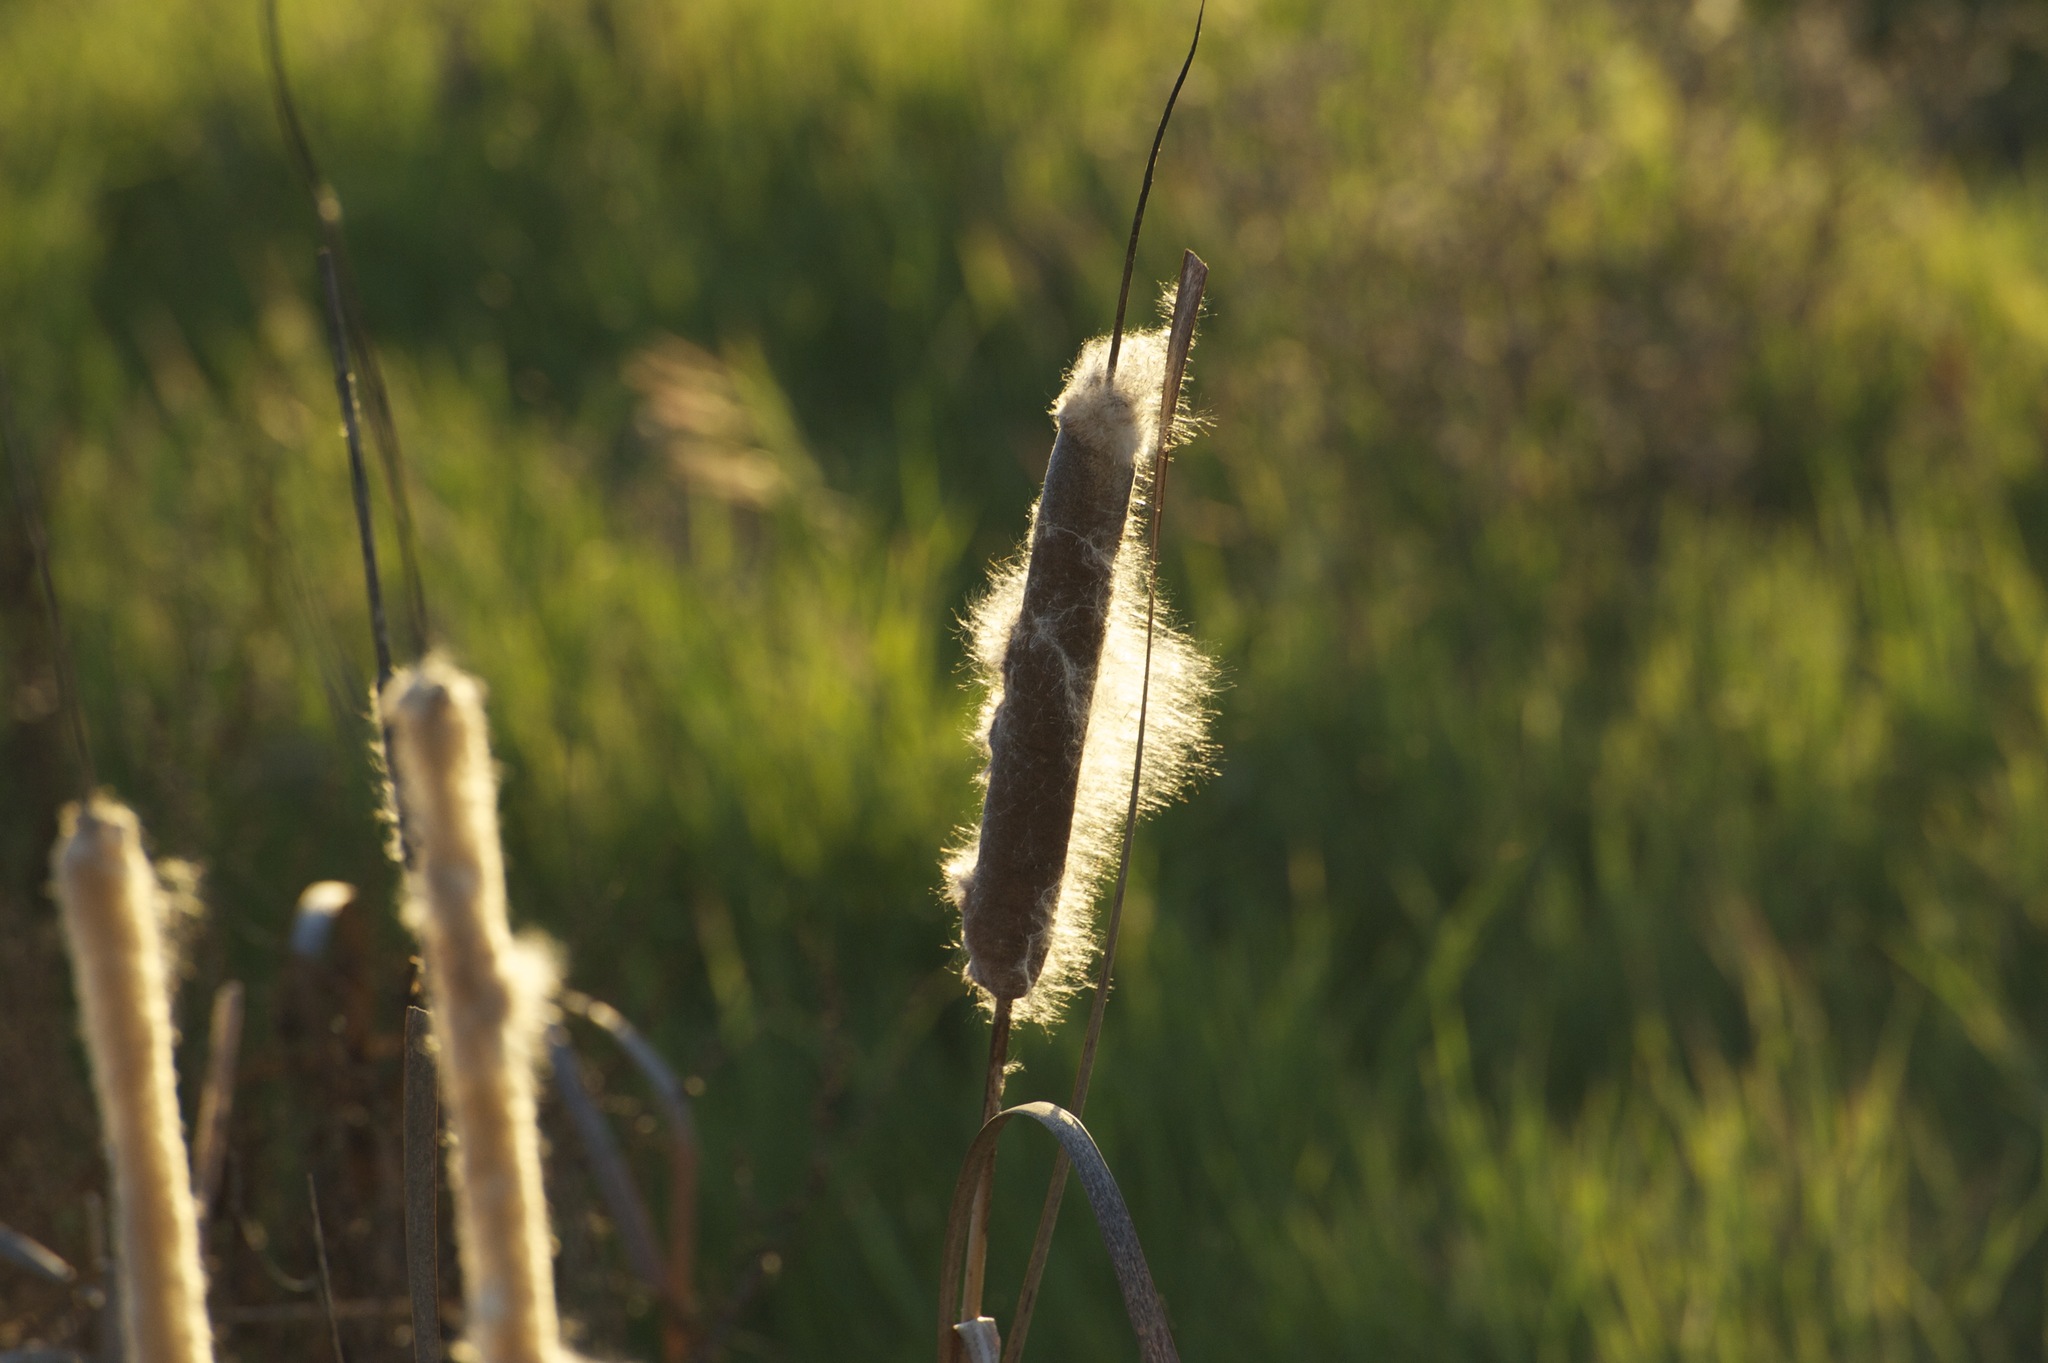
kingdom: Plantae
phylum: Tracheophyta
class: Liliopsida
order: Poales
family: Typhaceae
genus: Typha
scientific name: Typha latifolia
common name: Broadleaf cattail
